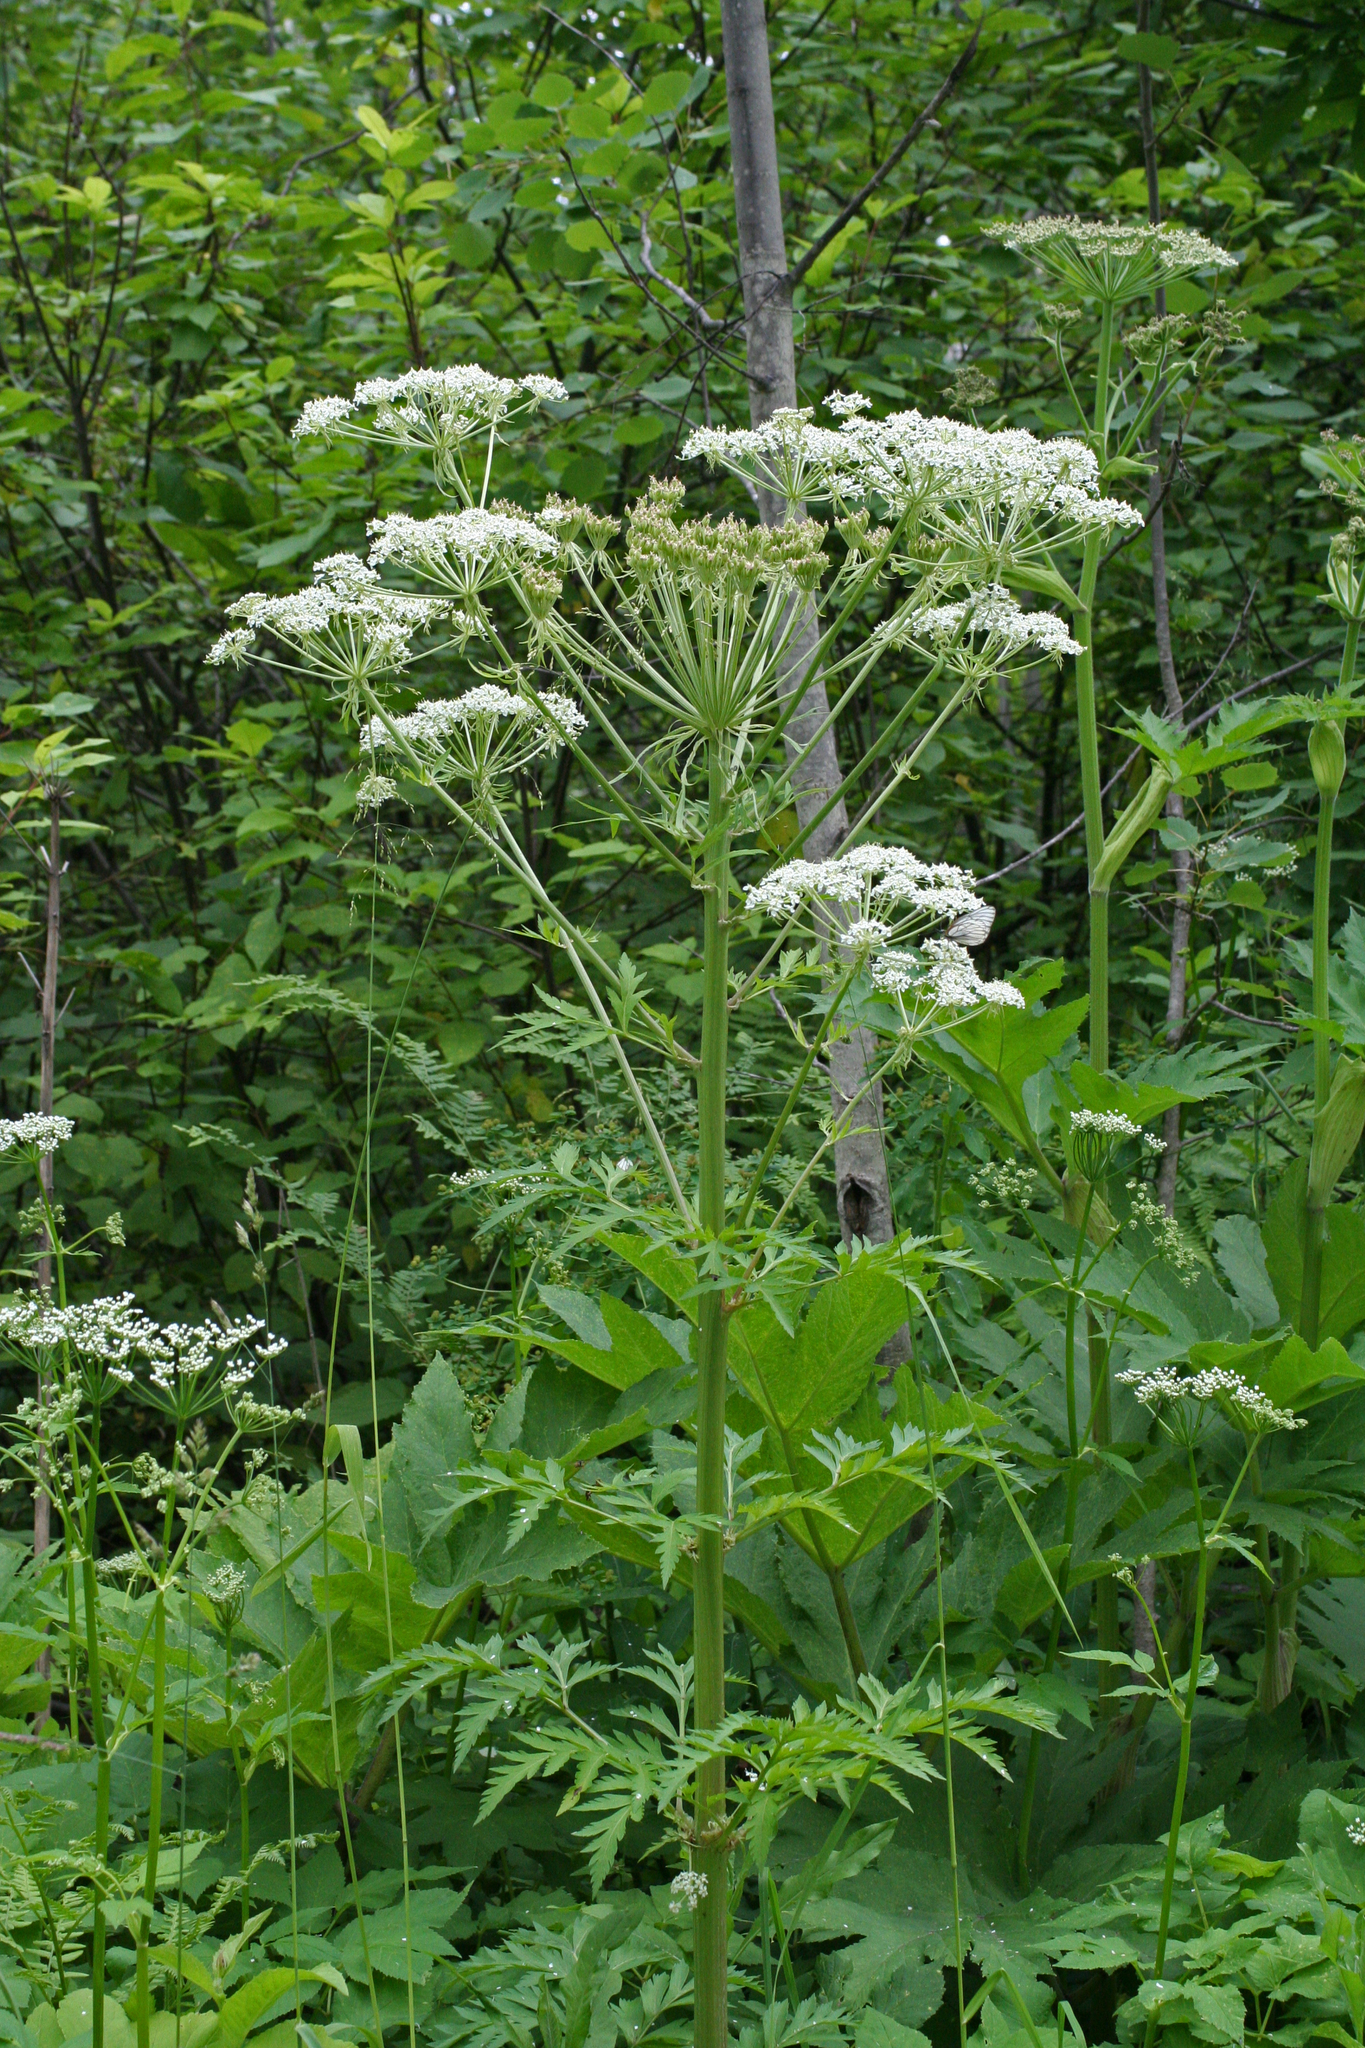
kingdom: Plantae
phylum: Tracheophyta
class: Magnoliopsida
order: Apiales
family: Apiaceae
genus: Pleurospermum
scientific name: Pleurospermum uralense
